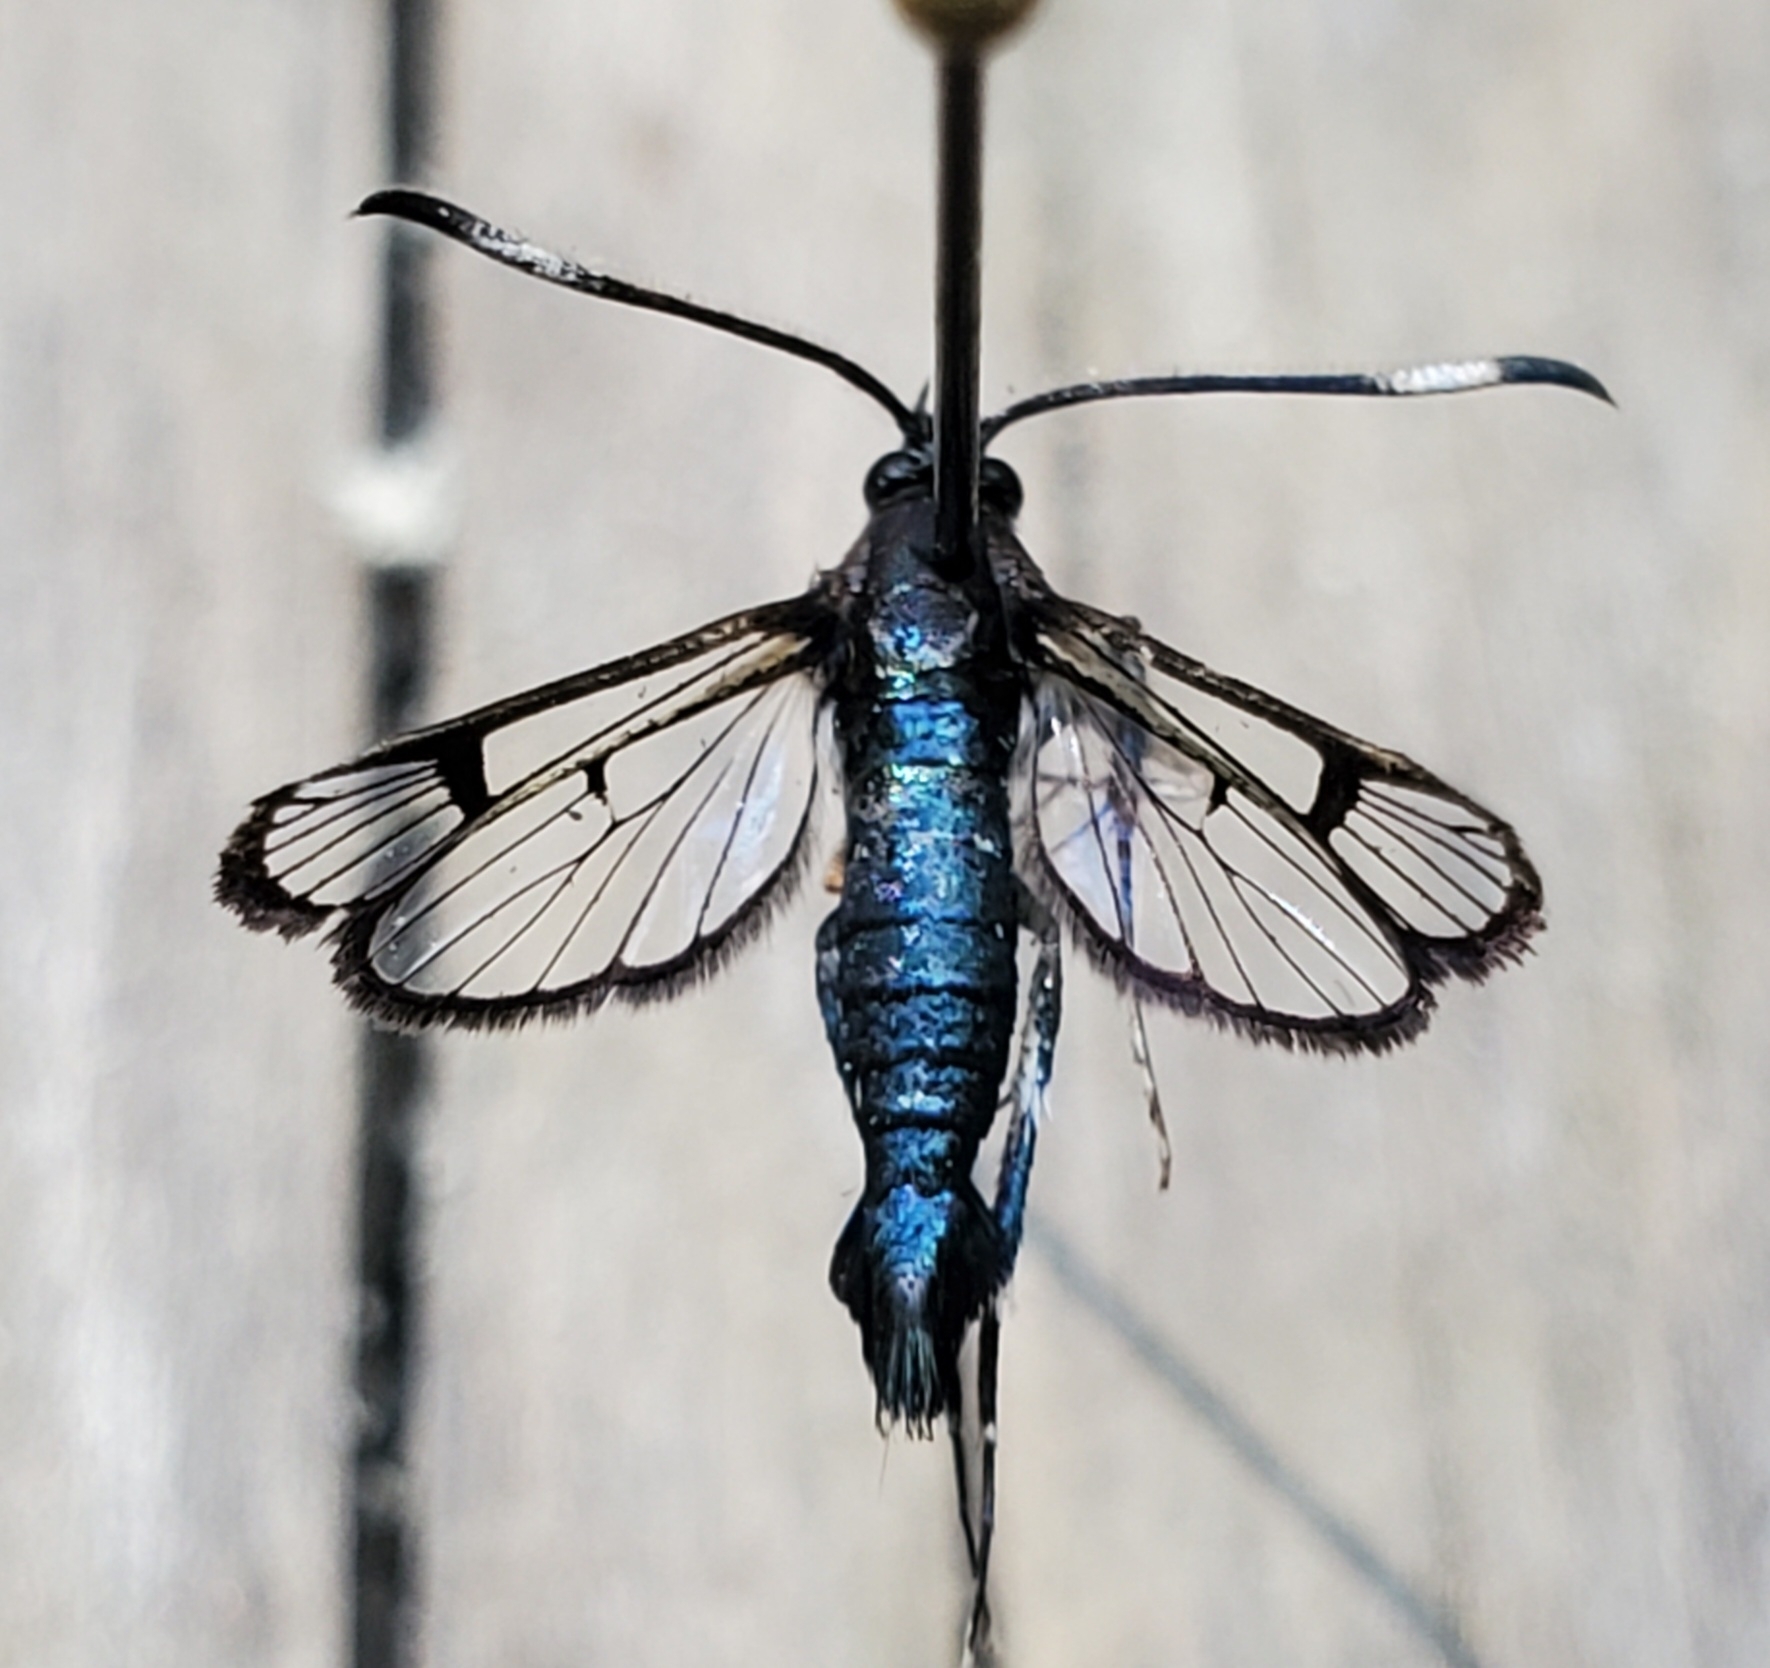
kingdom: Animalia
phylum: Arthropoda
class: Insecta
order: Lepidoptera
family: Sesiidae
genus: Synanthedon
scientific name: Synanthedon albicornis
